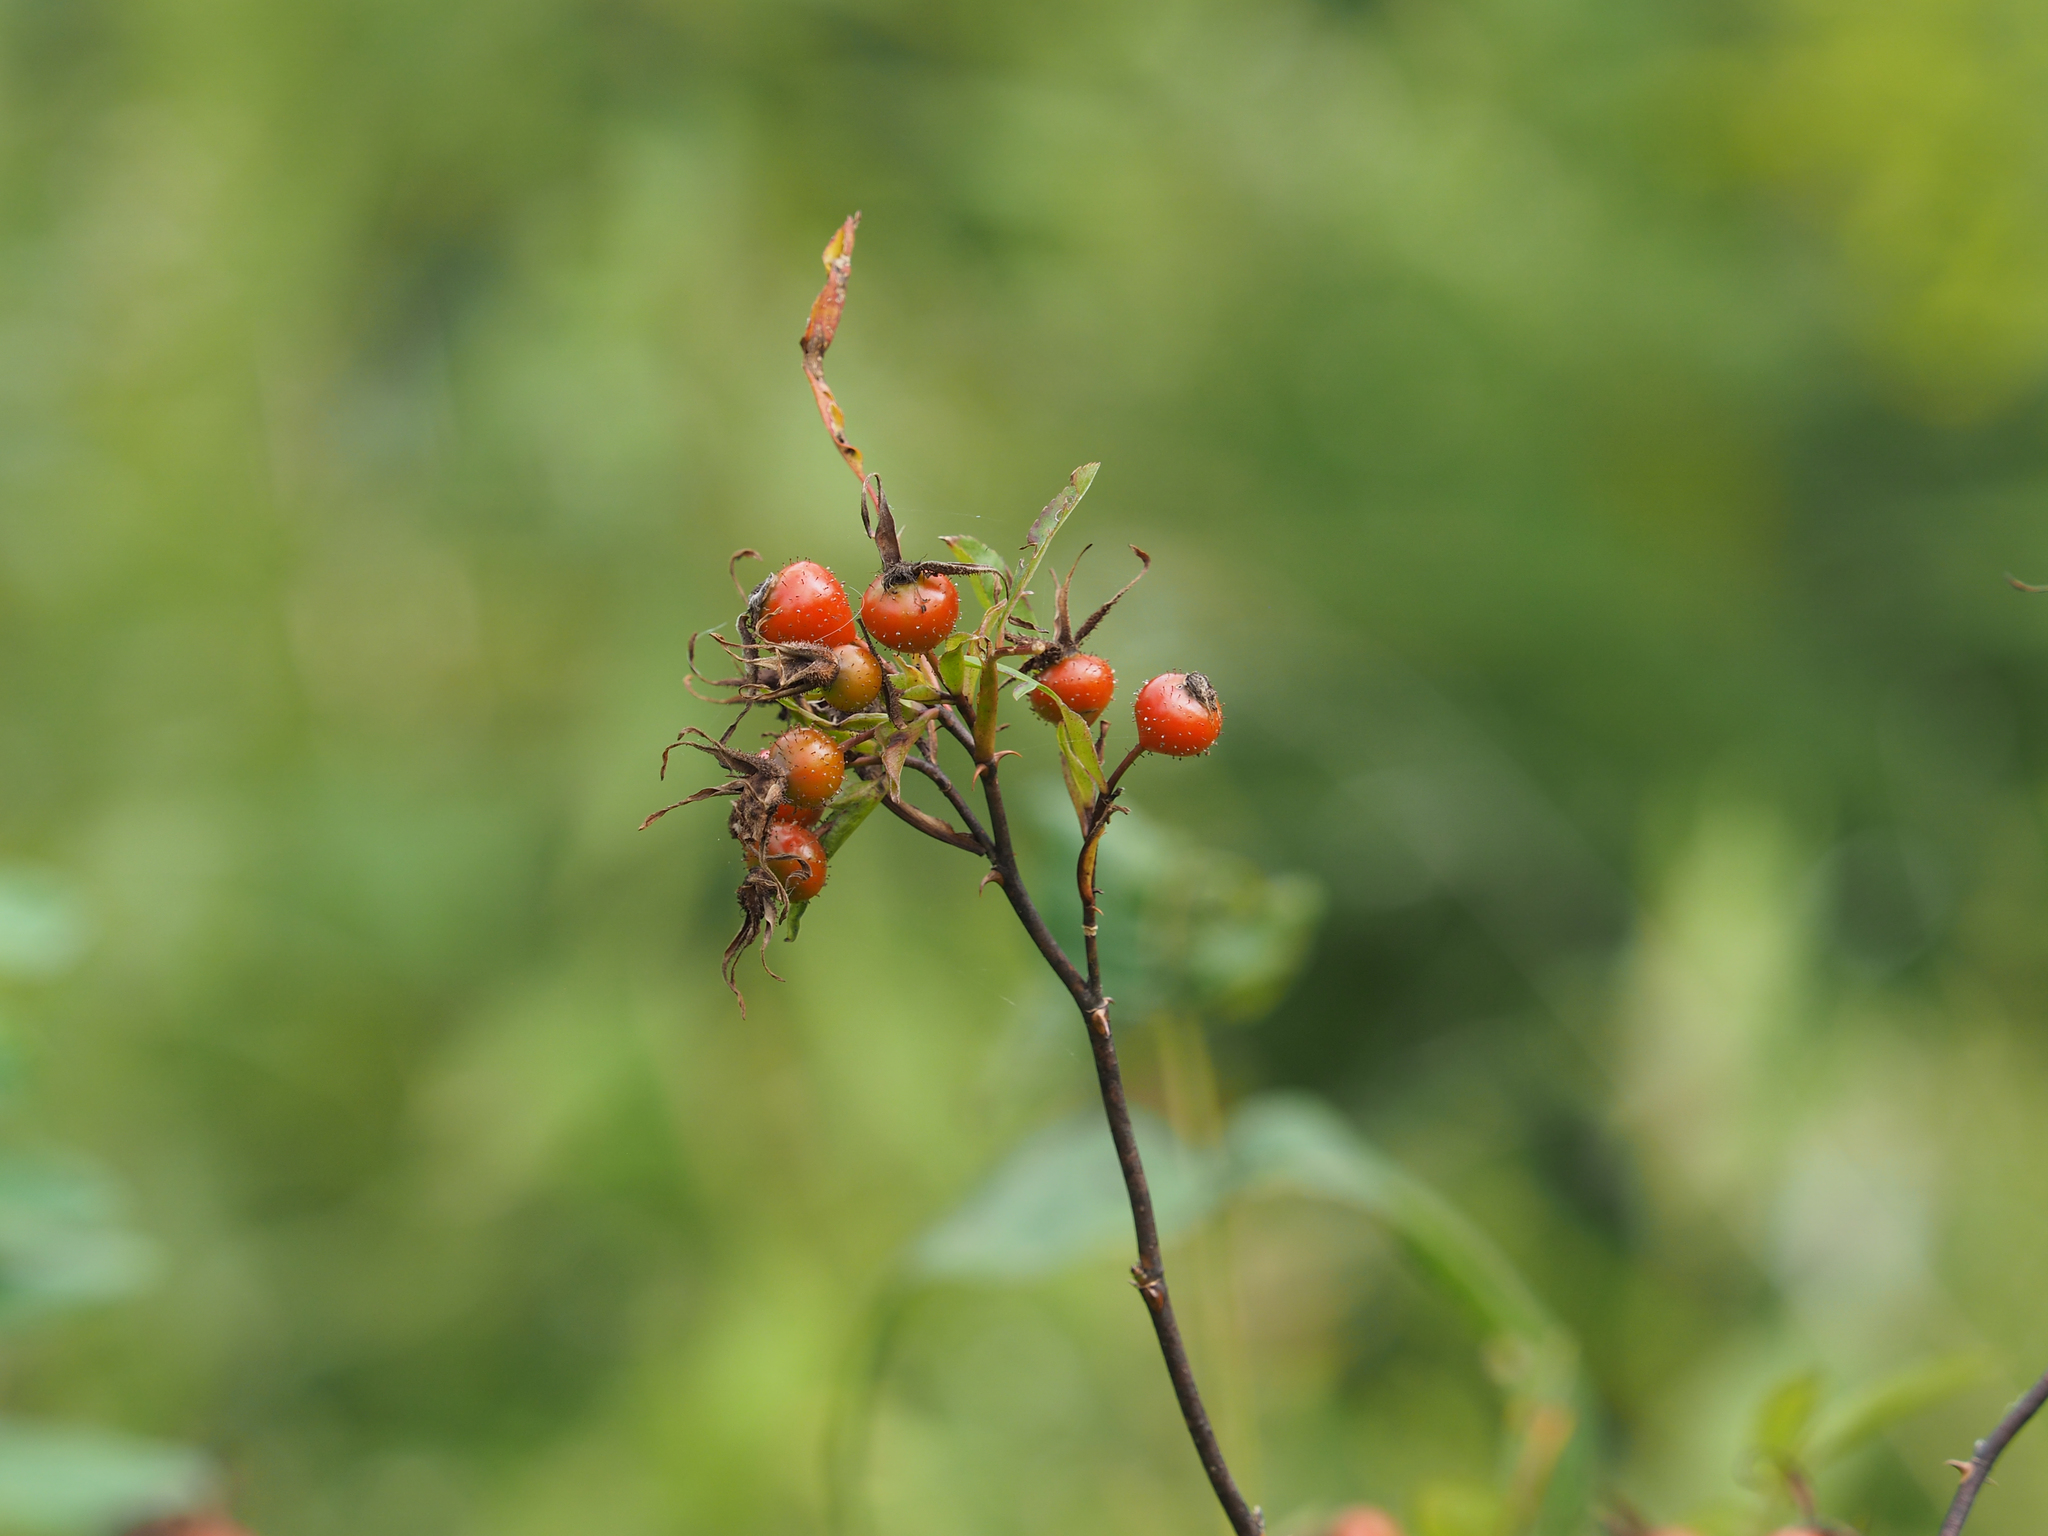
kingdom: Plantae
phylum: Tracheophyta
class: Magnoliopsida
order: Rosales
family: Rosaceae
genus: Rosa
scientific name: Rosa palustris
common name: Swamp rose
